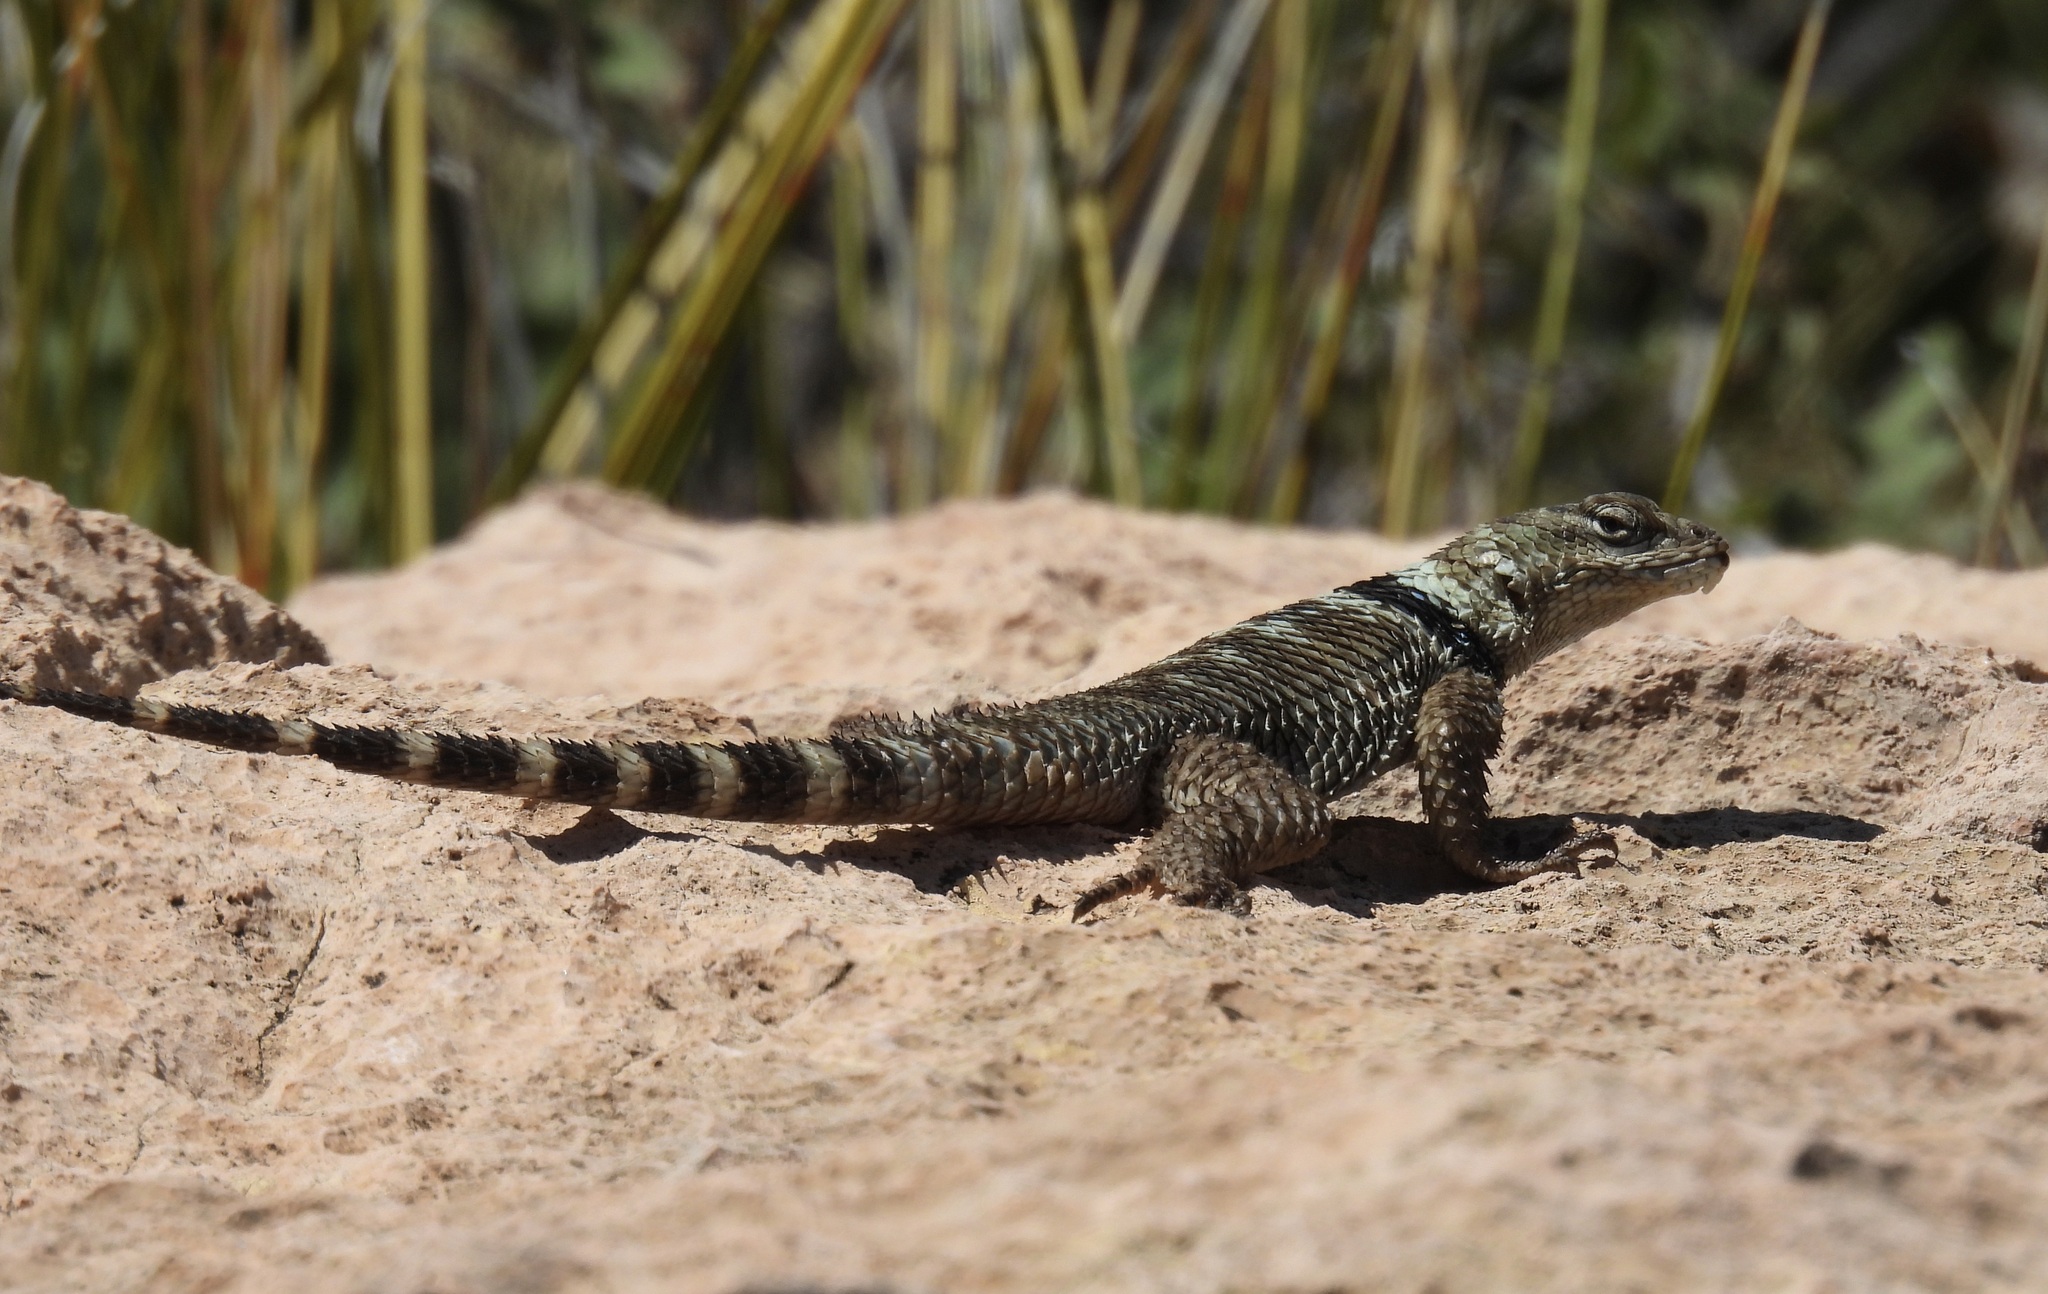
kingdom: Animalia
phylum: Chordata
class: Squamata
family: Phrynosomatidae
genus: Sceloporus
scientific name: Sceloporus poinsettii
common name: Crevice spiny lizard
